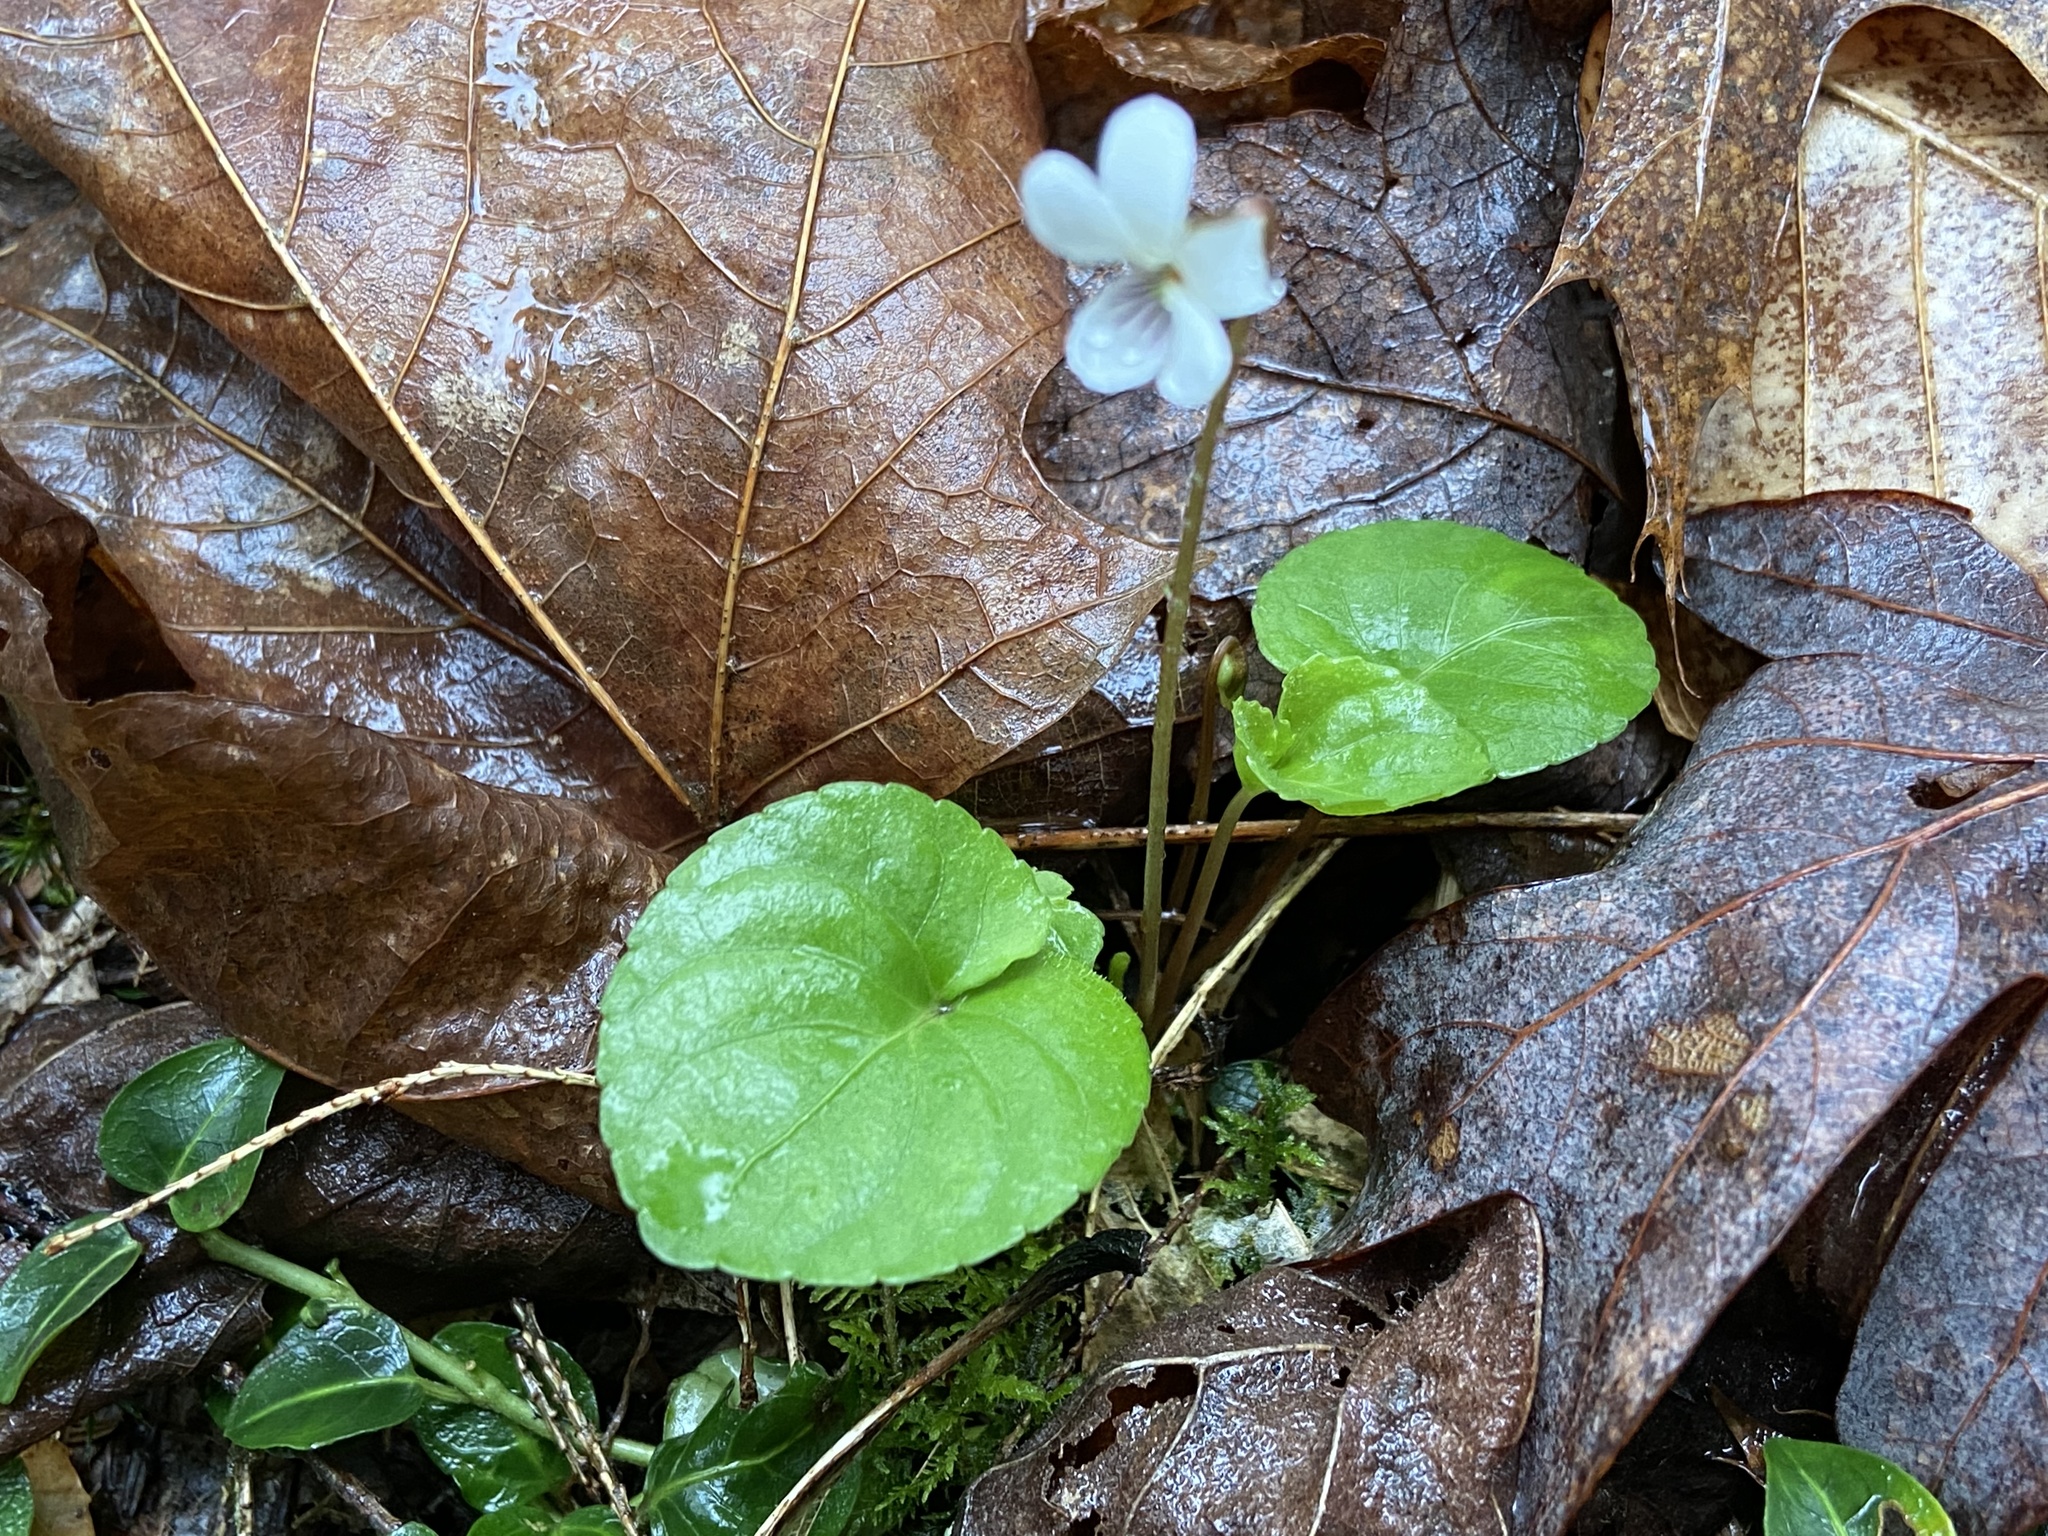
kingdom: Plantae
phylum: Tracheophyta
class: Magnoliopsida
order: Malpighiales
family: Violaceae
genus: Viola
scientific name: Viola blanda
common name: Sweet white violet
